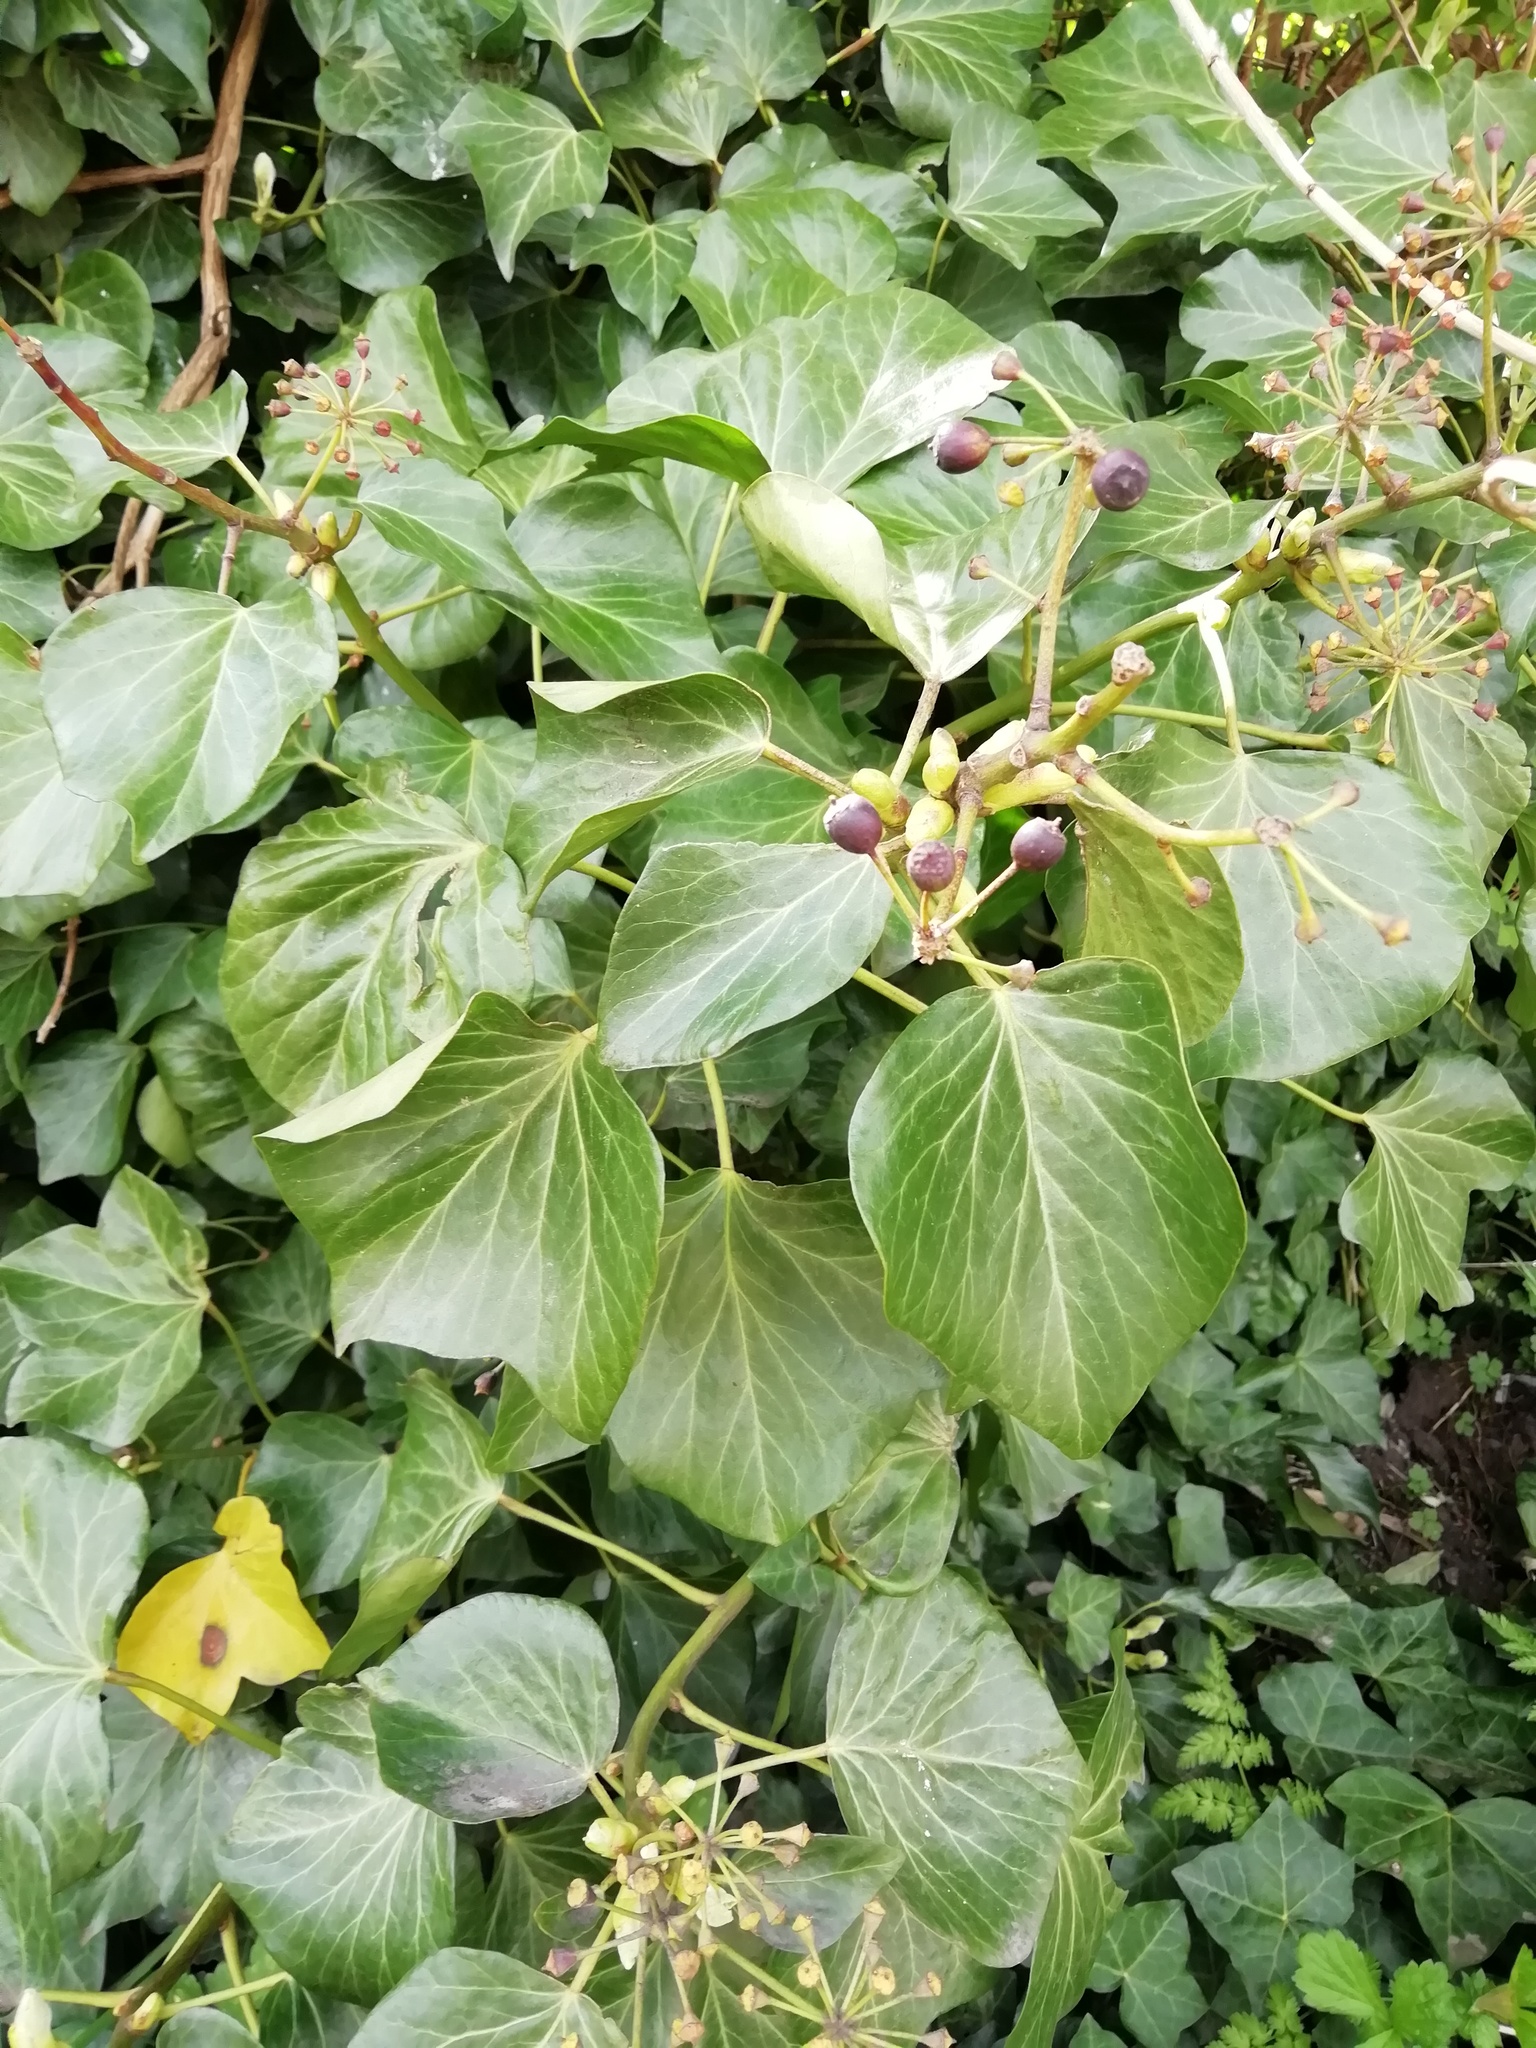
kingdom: Plantae
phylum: Tracheophyta
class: Magnoliopsida
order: Apiales
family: Araliaceae
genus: Hedera
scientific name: Hedera helix
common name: Ivy
